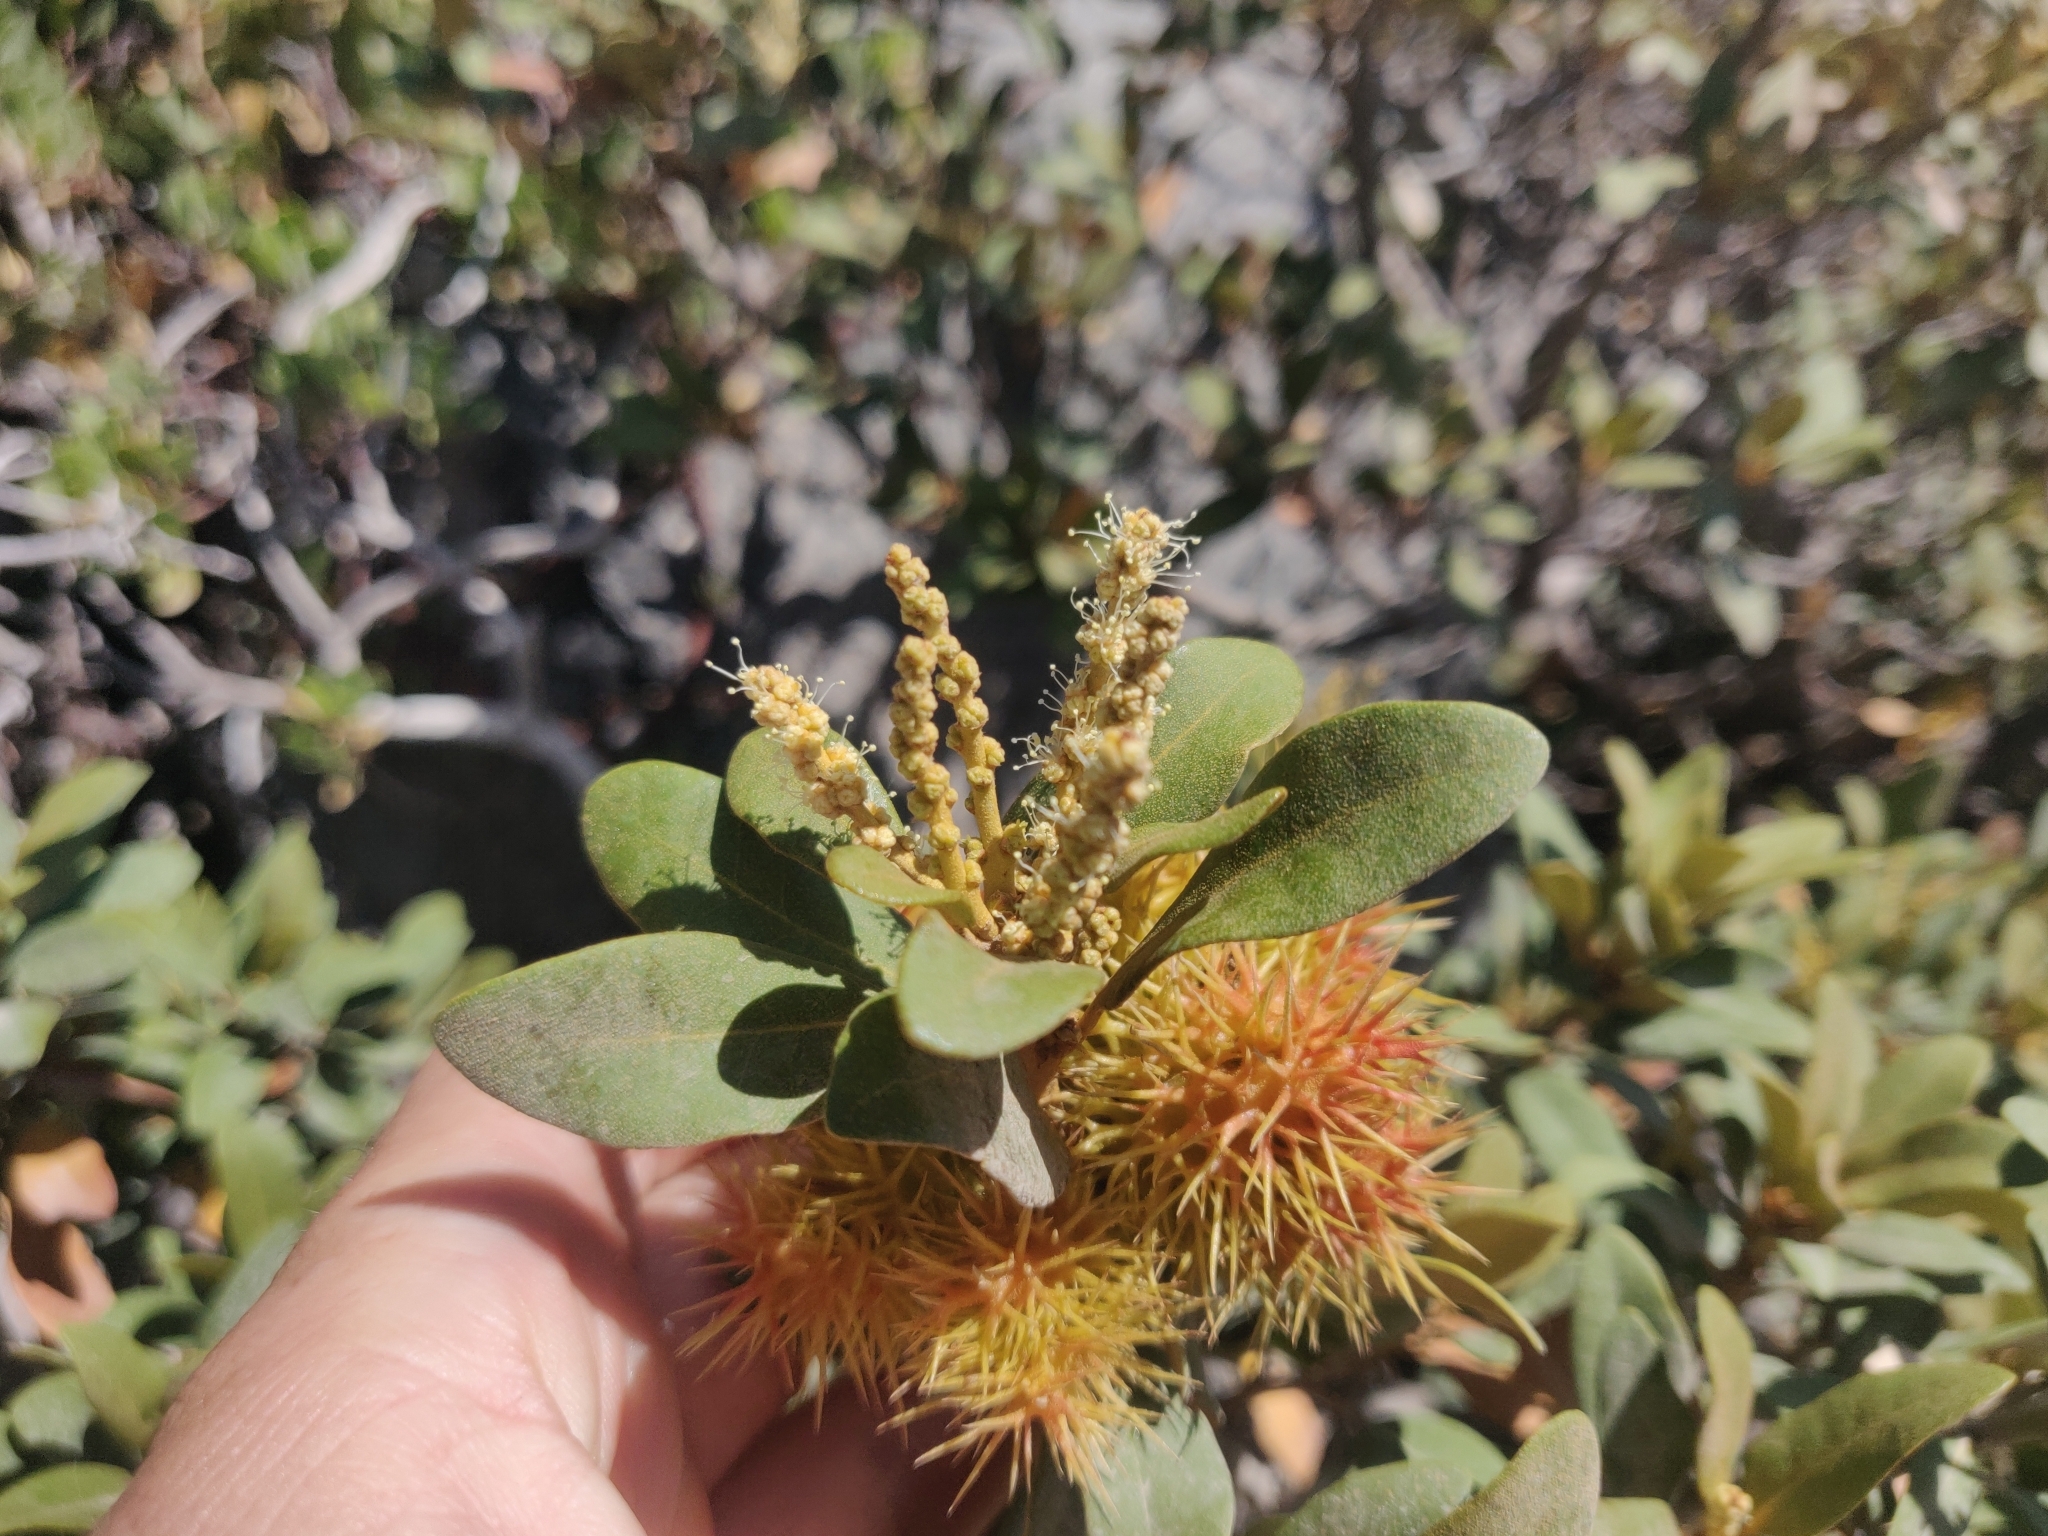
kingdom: Plantae
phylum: Tracheophyta
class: Magnoliopsida
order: Fagales
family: Fagaceae
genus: Chrysolepis
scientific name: Chrysolepis sempervirens
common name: Bush chinquapin
